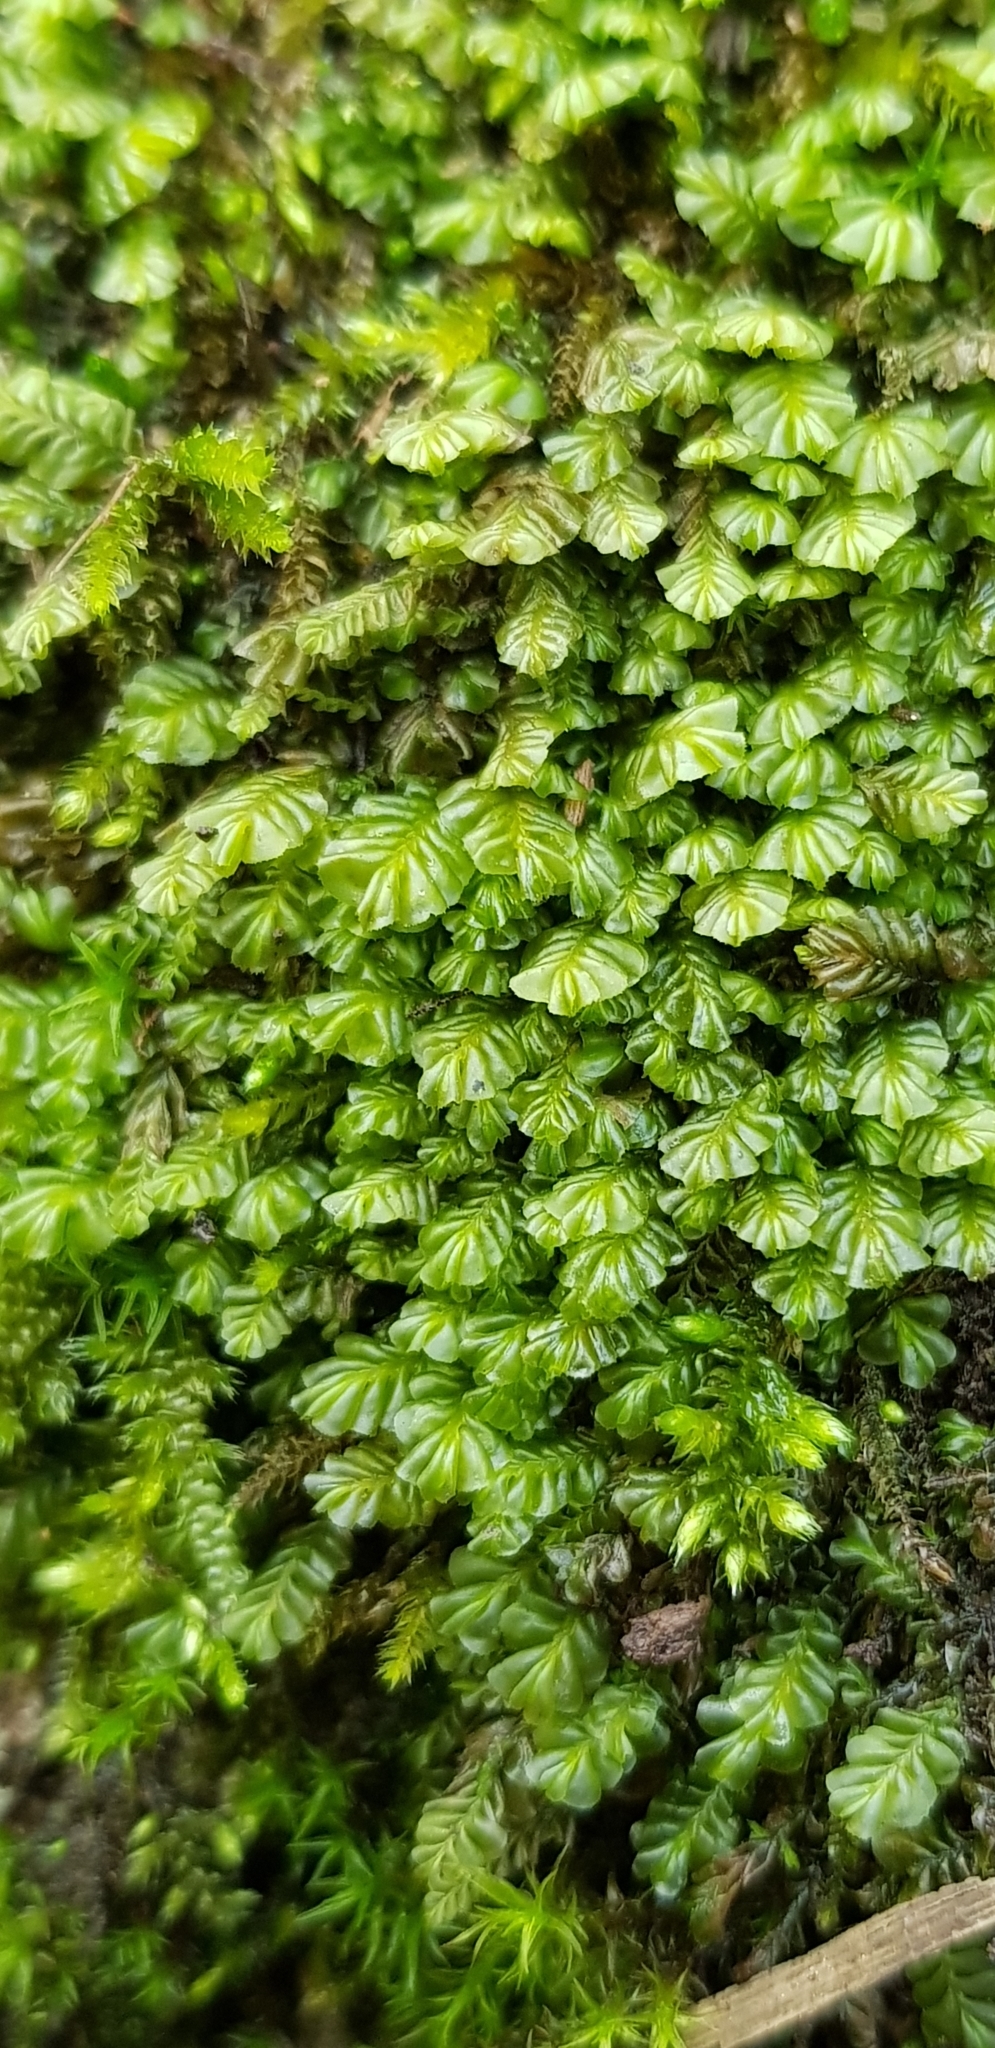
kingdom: Plantae
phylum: Marchantiophyta
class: Jungermanniopsida
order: Jungermanniales
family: Plagiochilaceae
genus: Plagiochila
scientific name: Plagiochila porelloides
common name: Lesser featherwort
